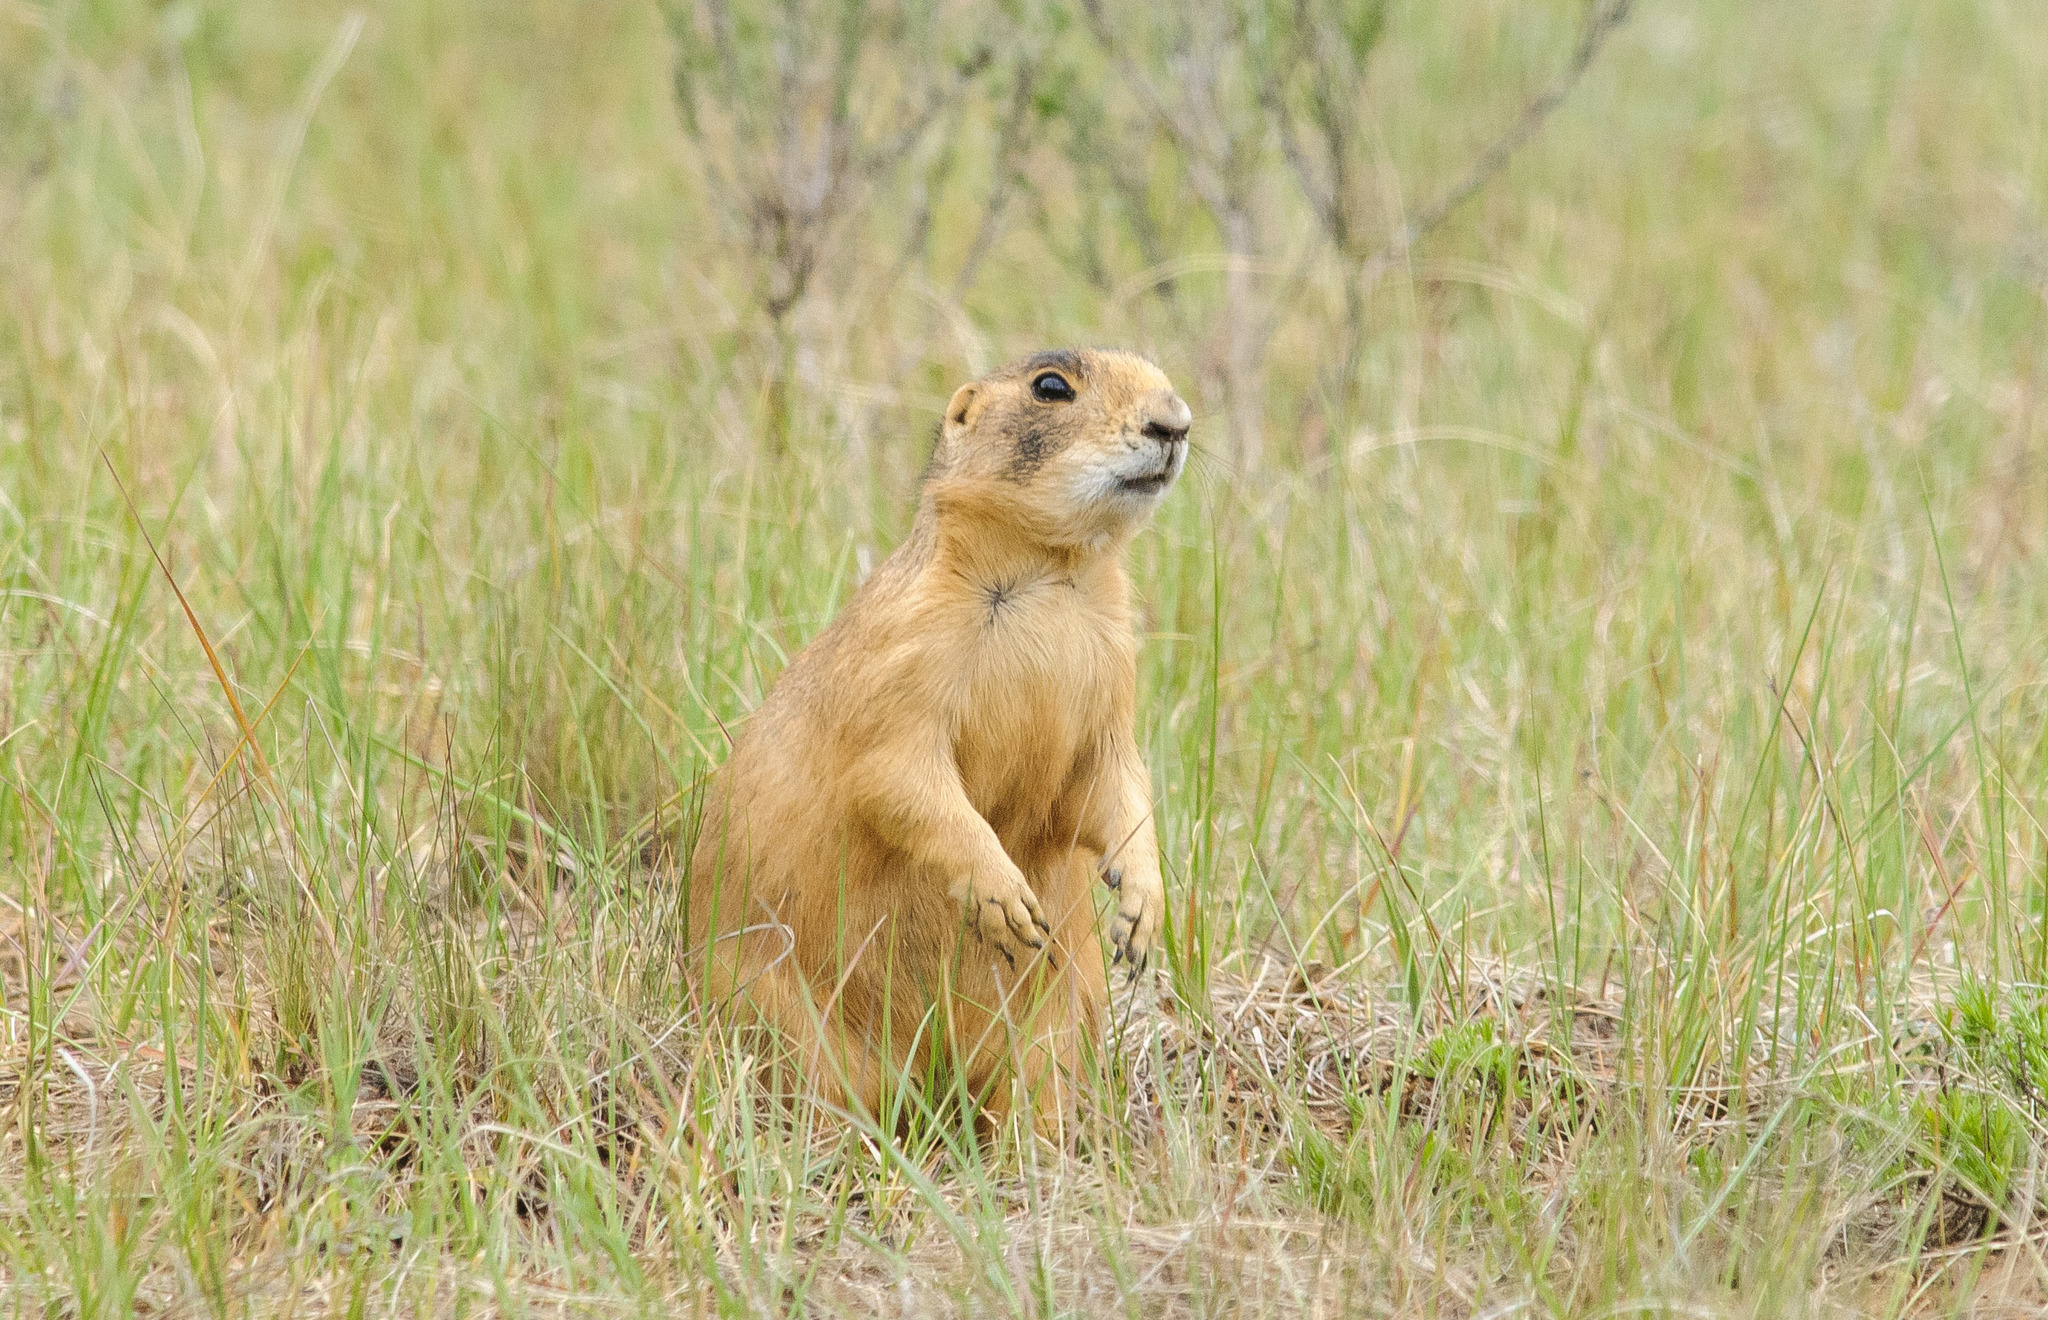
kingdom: Animalia
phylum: Chordata
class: Mammalia
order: Rodentia
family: Sciuridae
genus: Cynomys
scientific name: Cynomys parvidens
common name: Utah prairie dog
